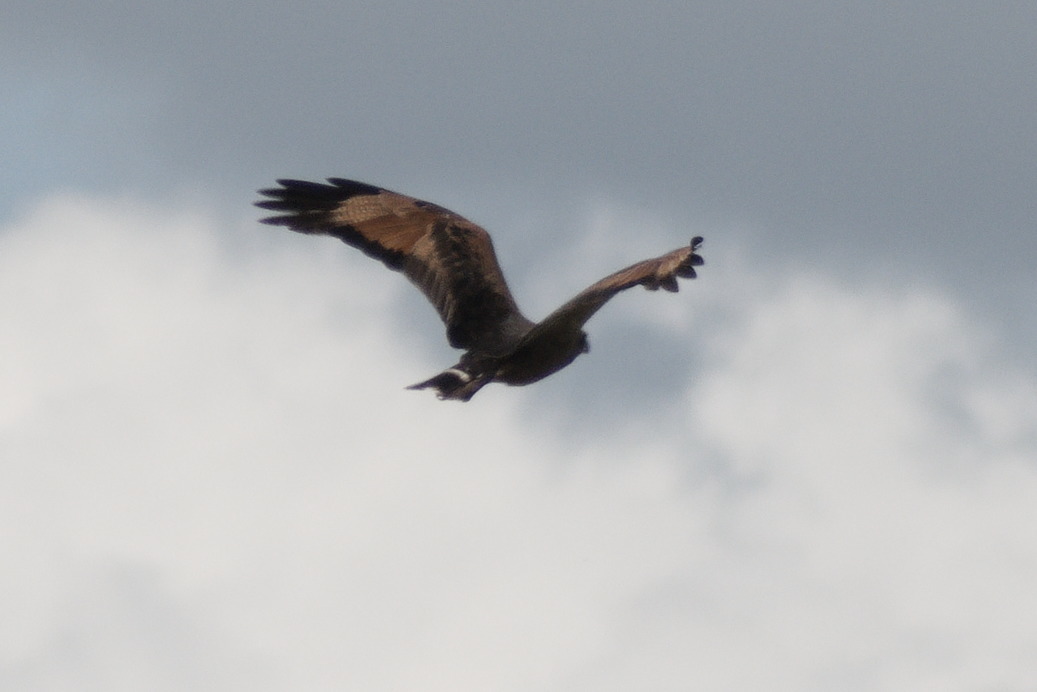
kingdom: Animalia
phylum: Chordata
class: Aves
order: Accipitriformes
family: Accipitridae
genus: Buteogallus
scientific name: Buteogallus meridionalis
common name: Savanna hawk
